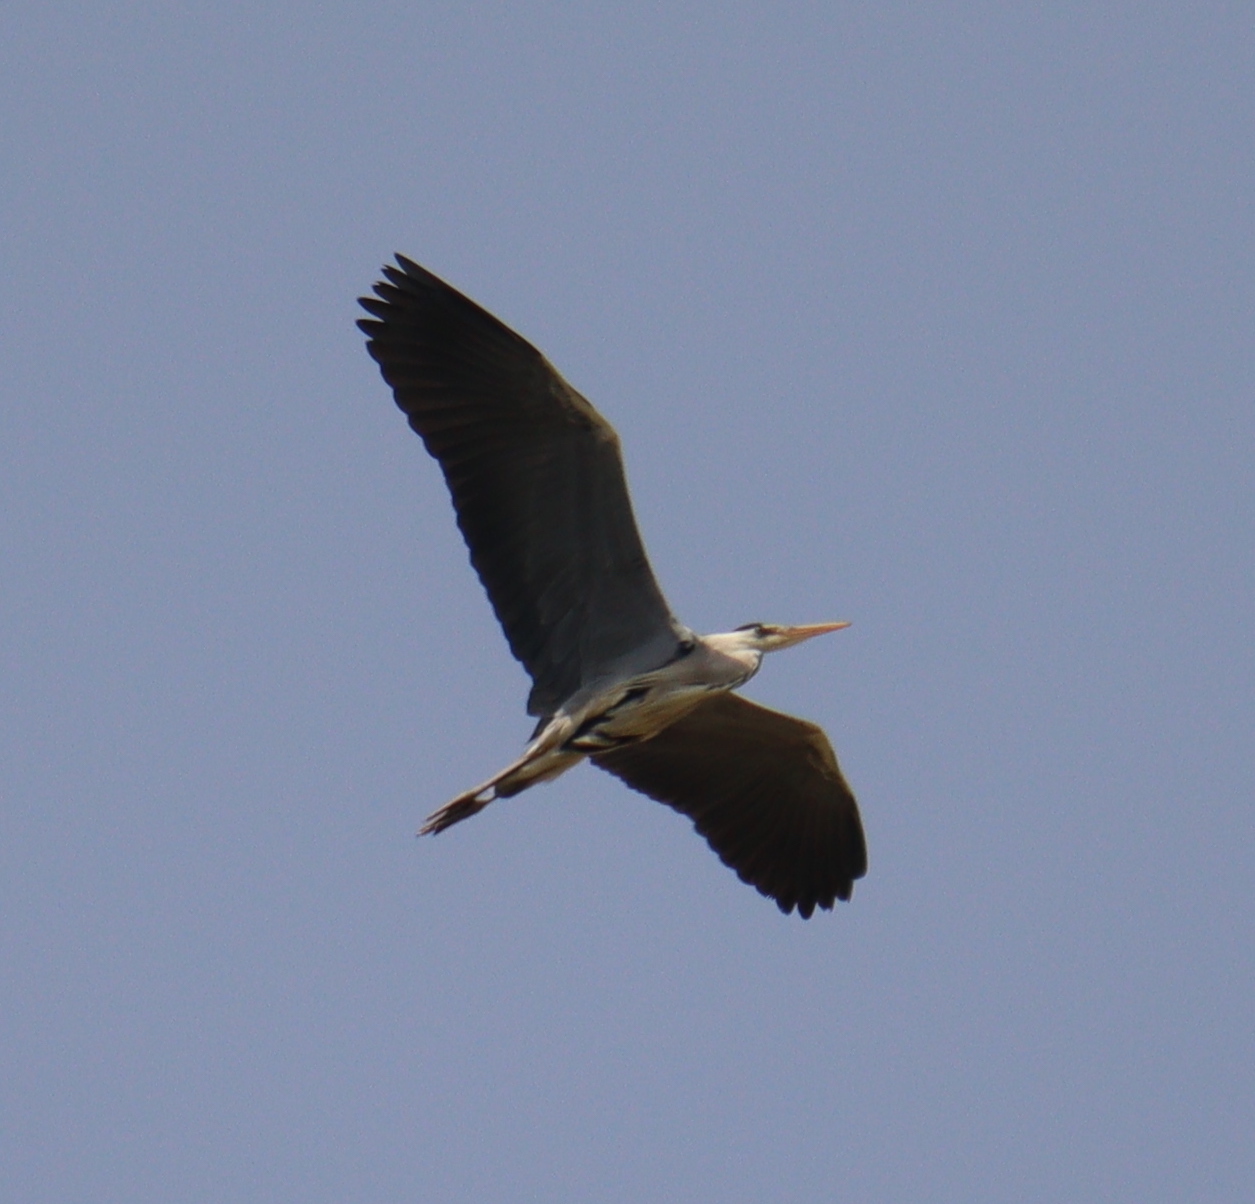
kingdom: Animalia
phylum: Chordata
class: Aves
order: Pelecaniformes
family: Ardeidae
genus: Ardea
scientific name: Ardea cinerea
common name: Grey heron
